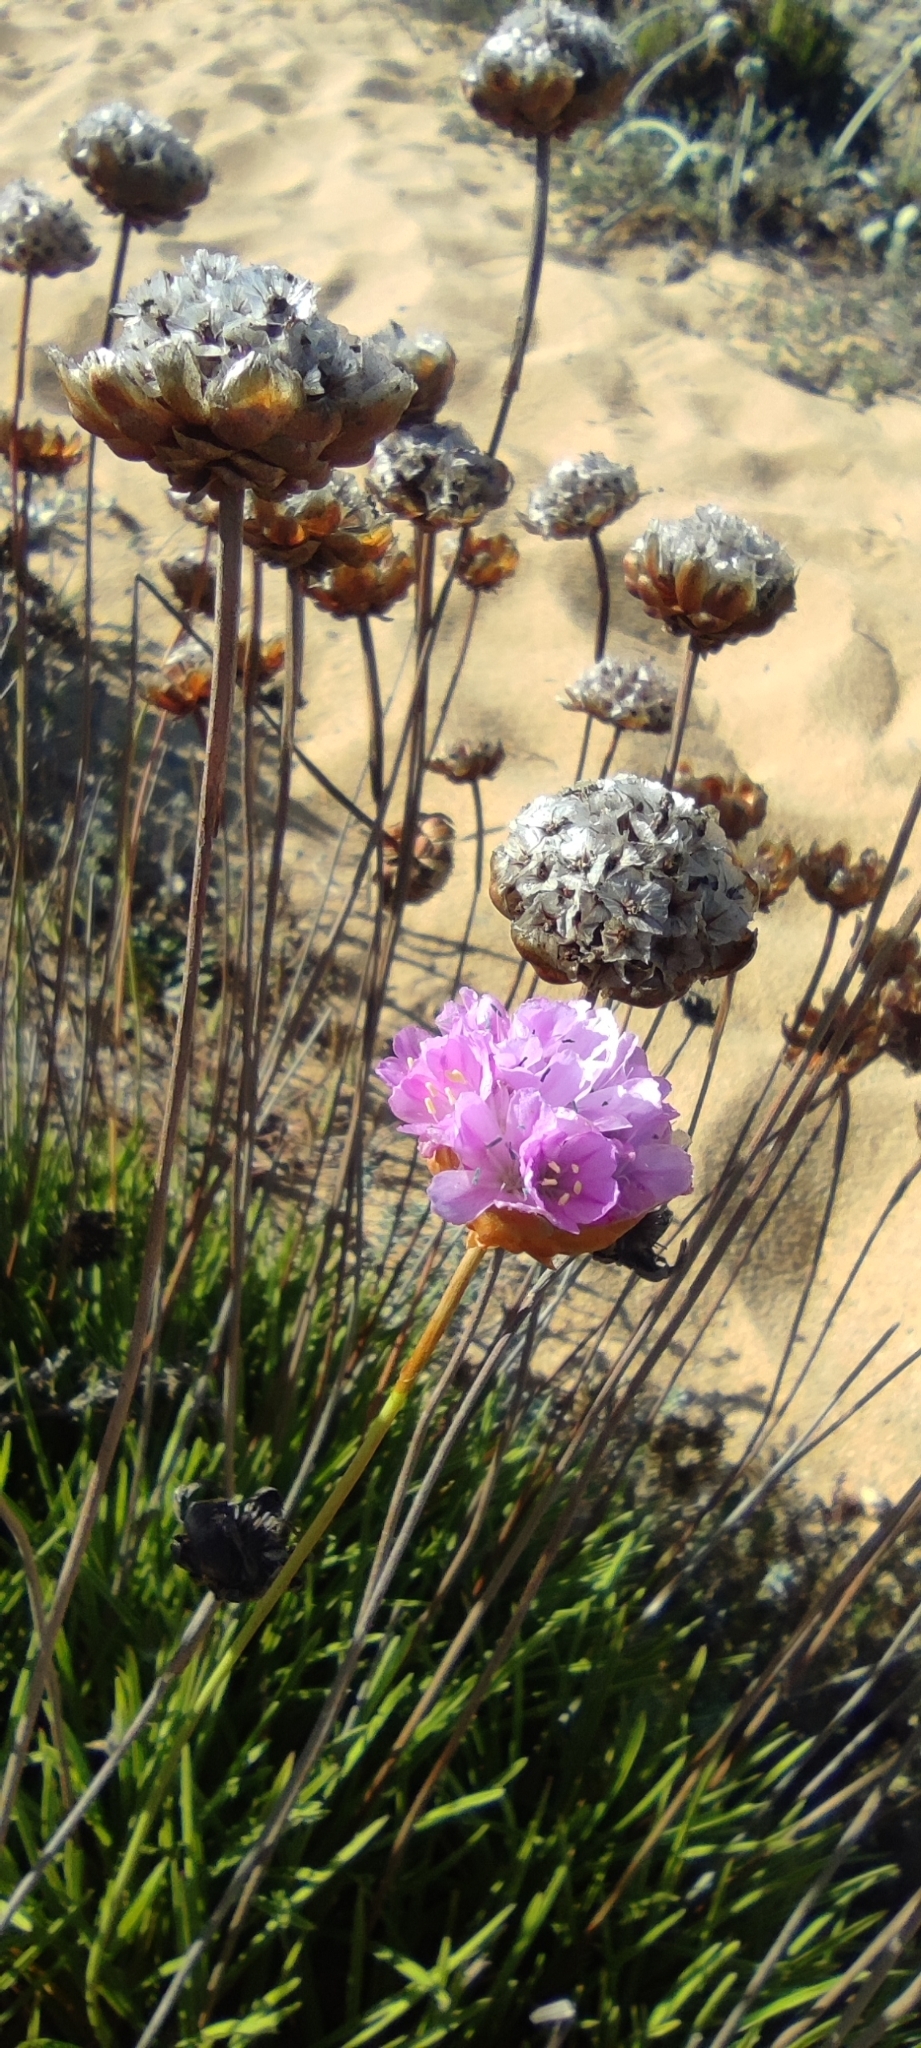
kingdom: Plantae
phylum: Tracheophyta
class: Magnoliopsida
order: Caryophyllales
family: Plumbaginaceae
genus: Armeria
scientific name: Armeria pungens
